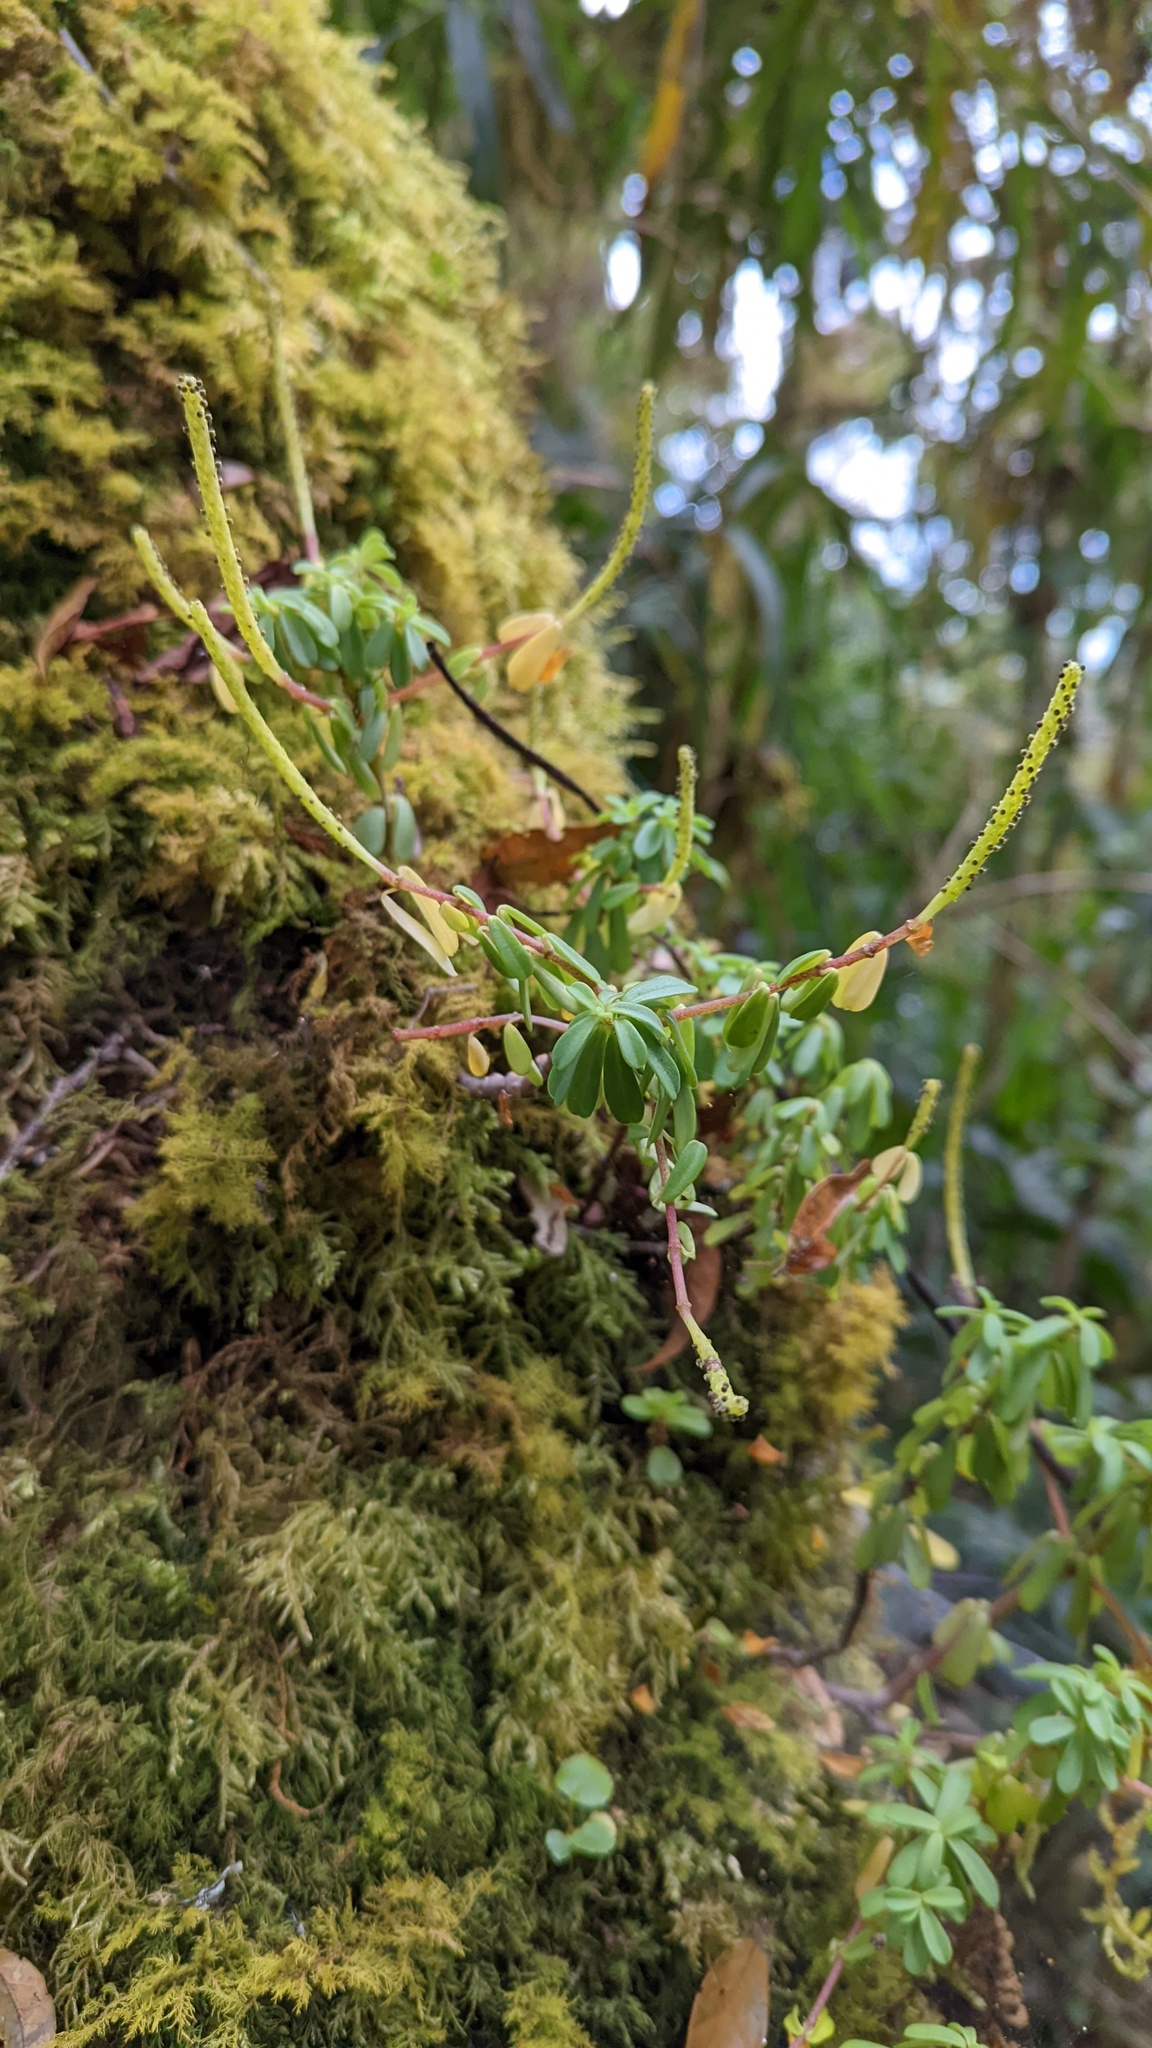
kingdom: Plantae
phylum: Tracheophyta
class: Magnoliopsida
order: Piperales
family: Piperaceae
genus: Peperomia
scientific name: Peperomia leptophylla
